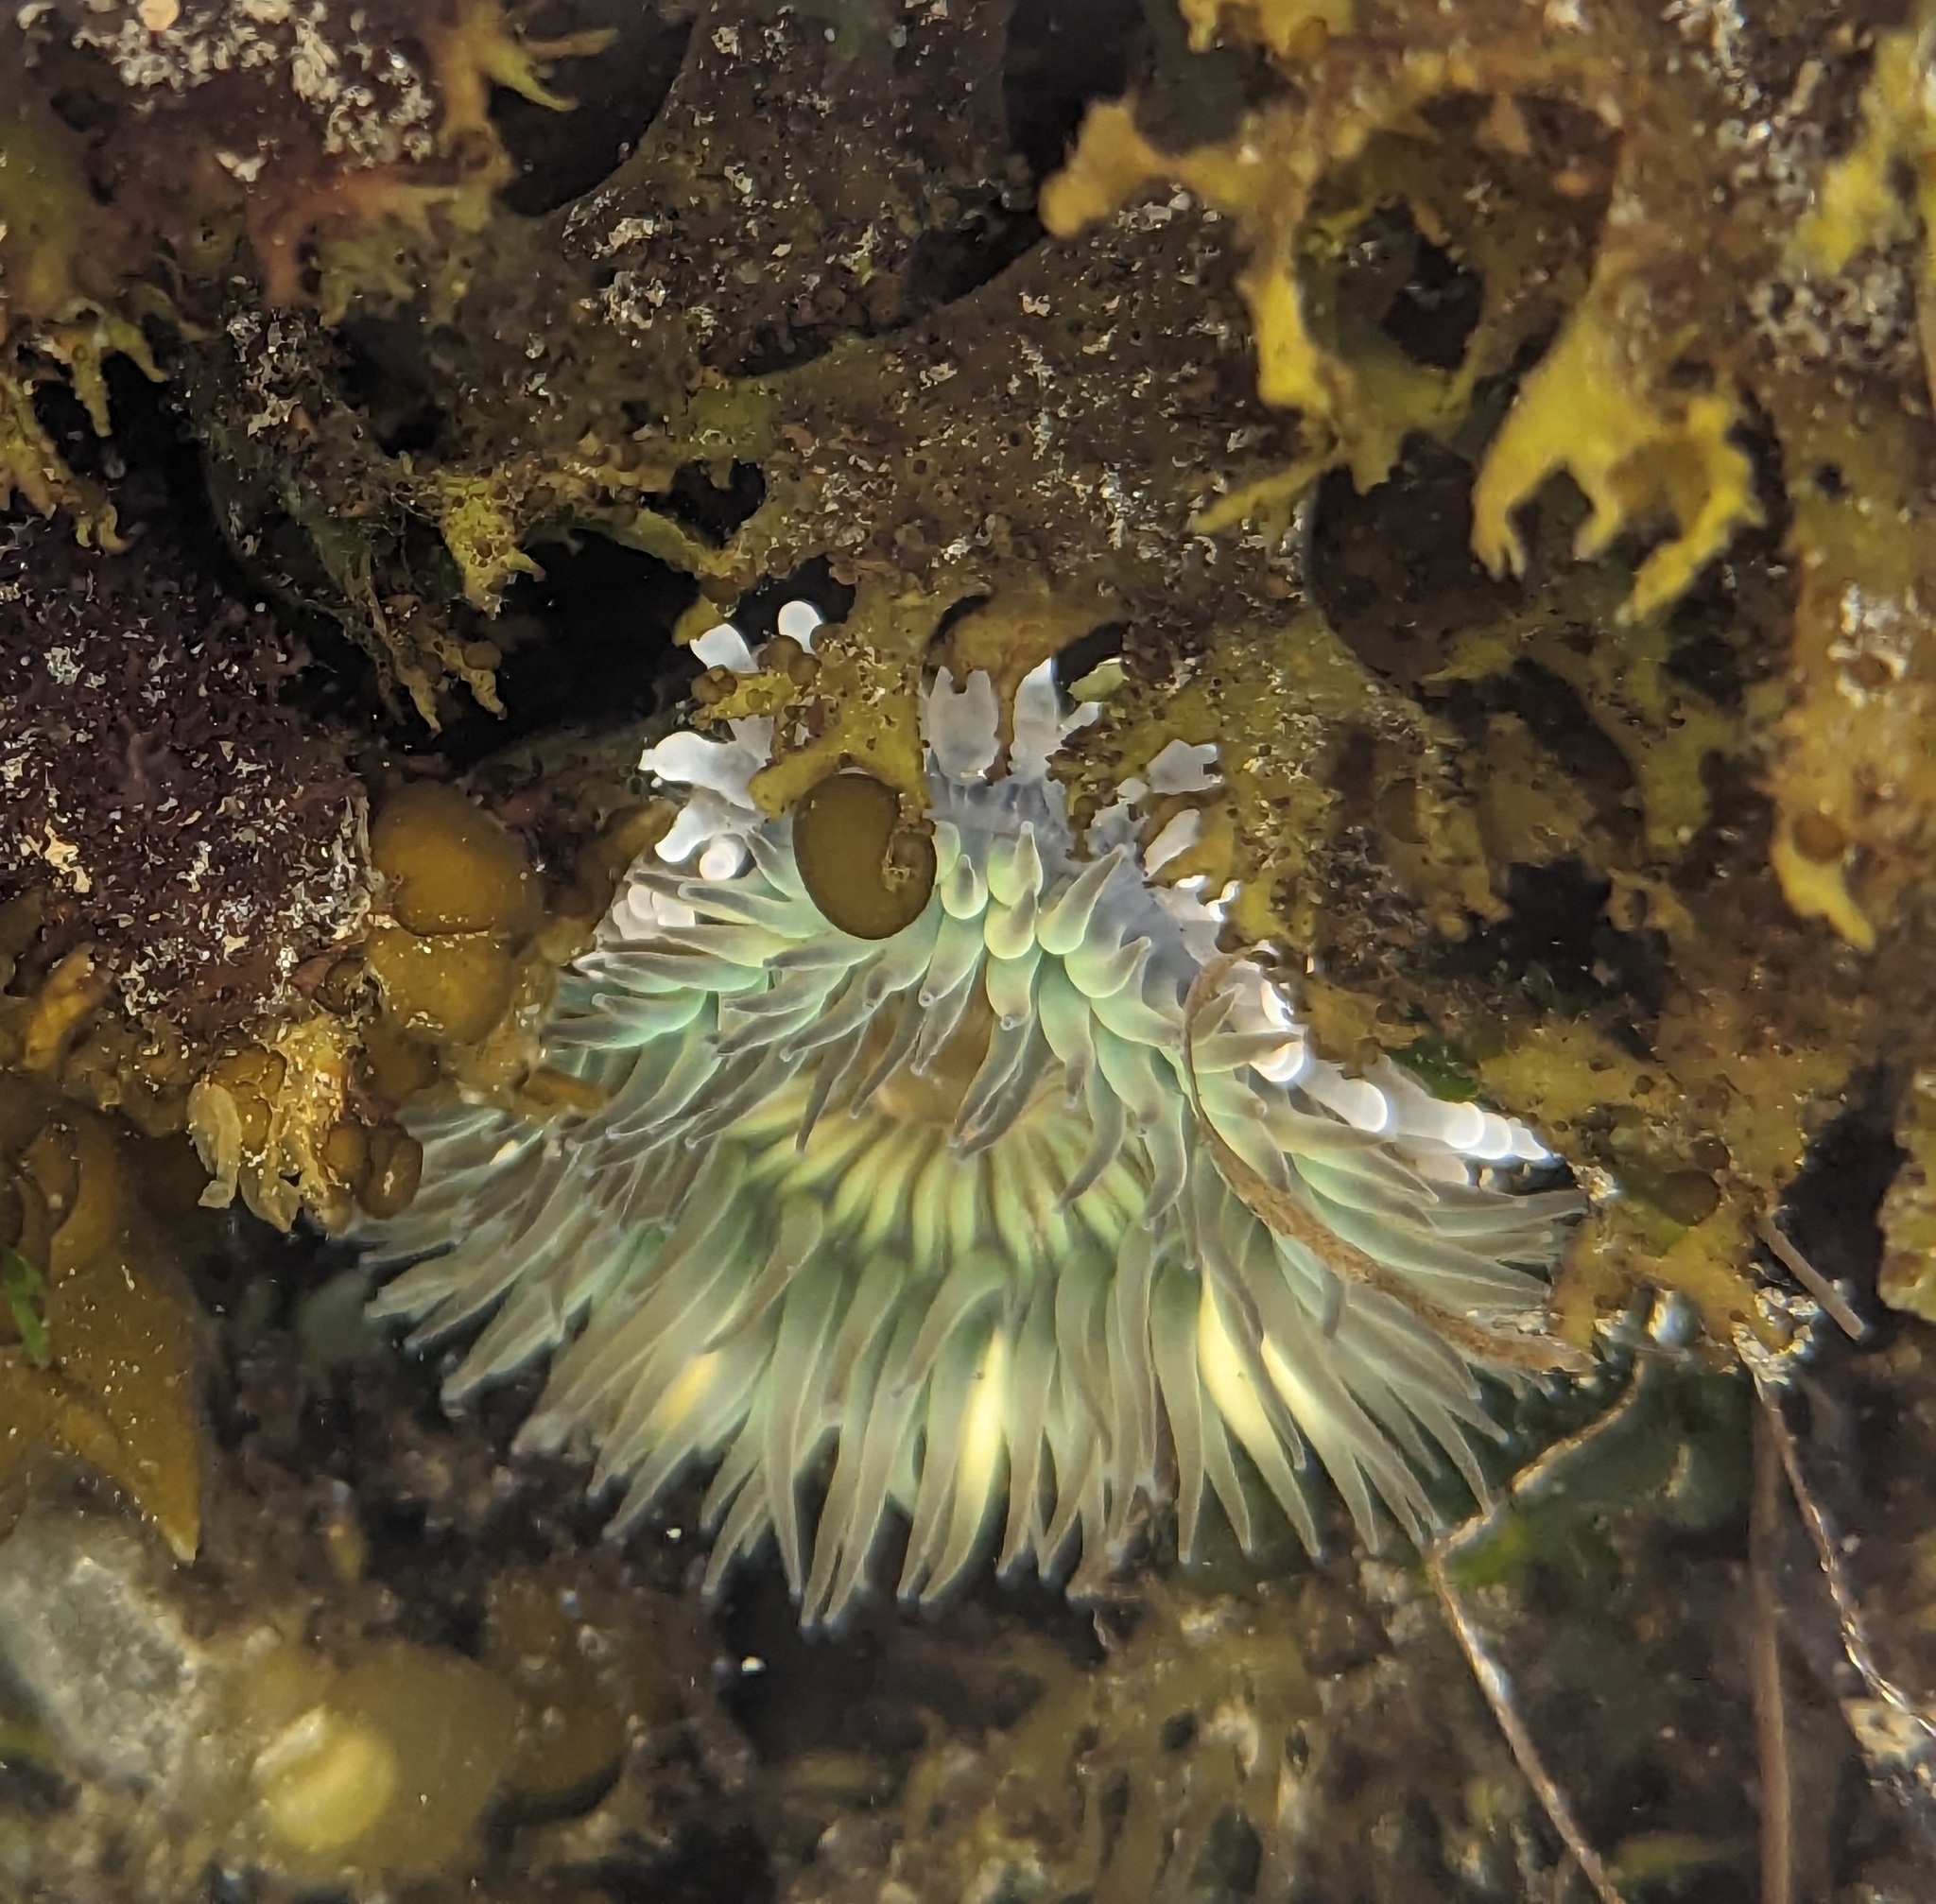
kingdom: Animalia
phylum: Cnidaria
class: Anthozoa
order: Actiniaria
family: Actiniidae
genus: Anthopleura
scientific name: Anthopleura sola
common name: Sun anemone
